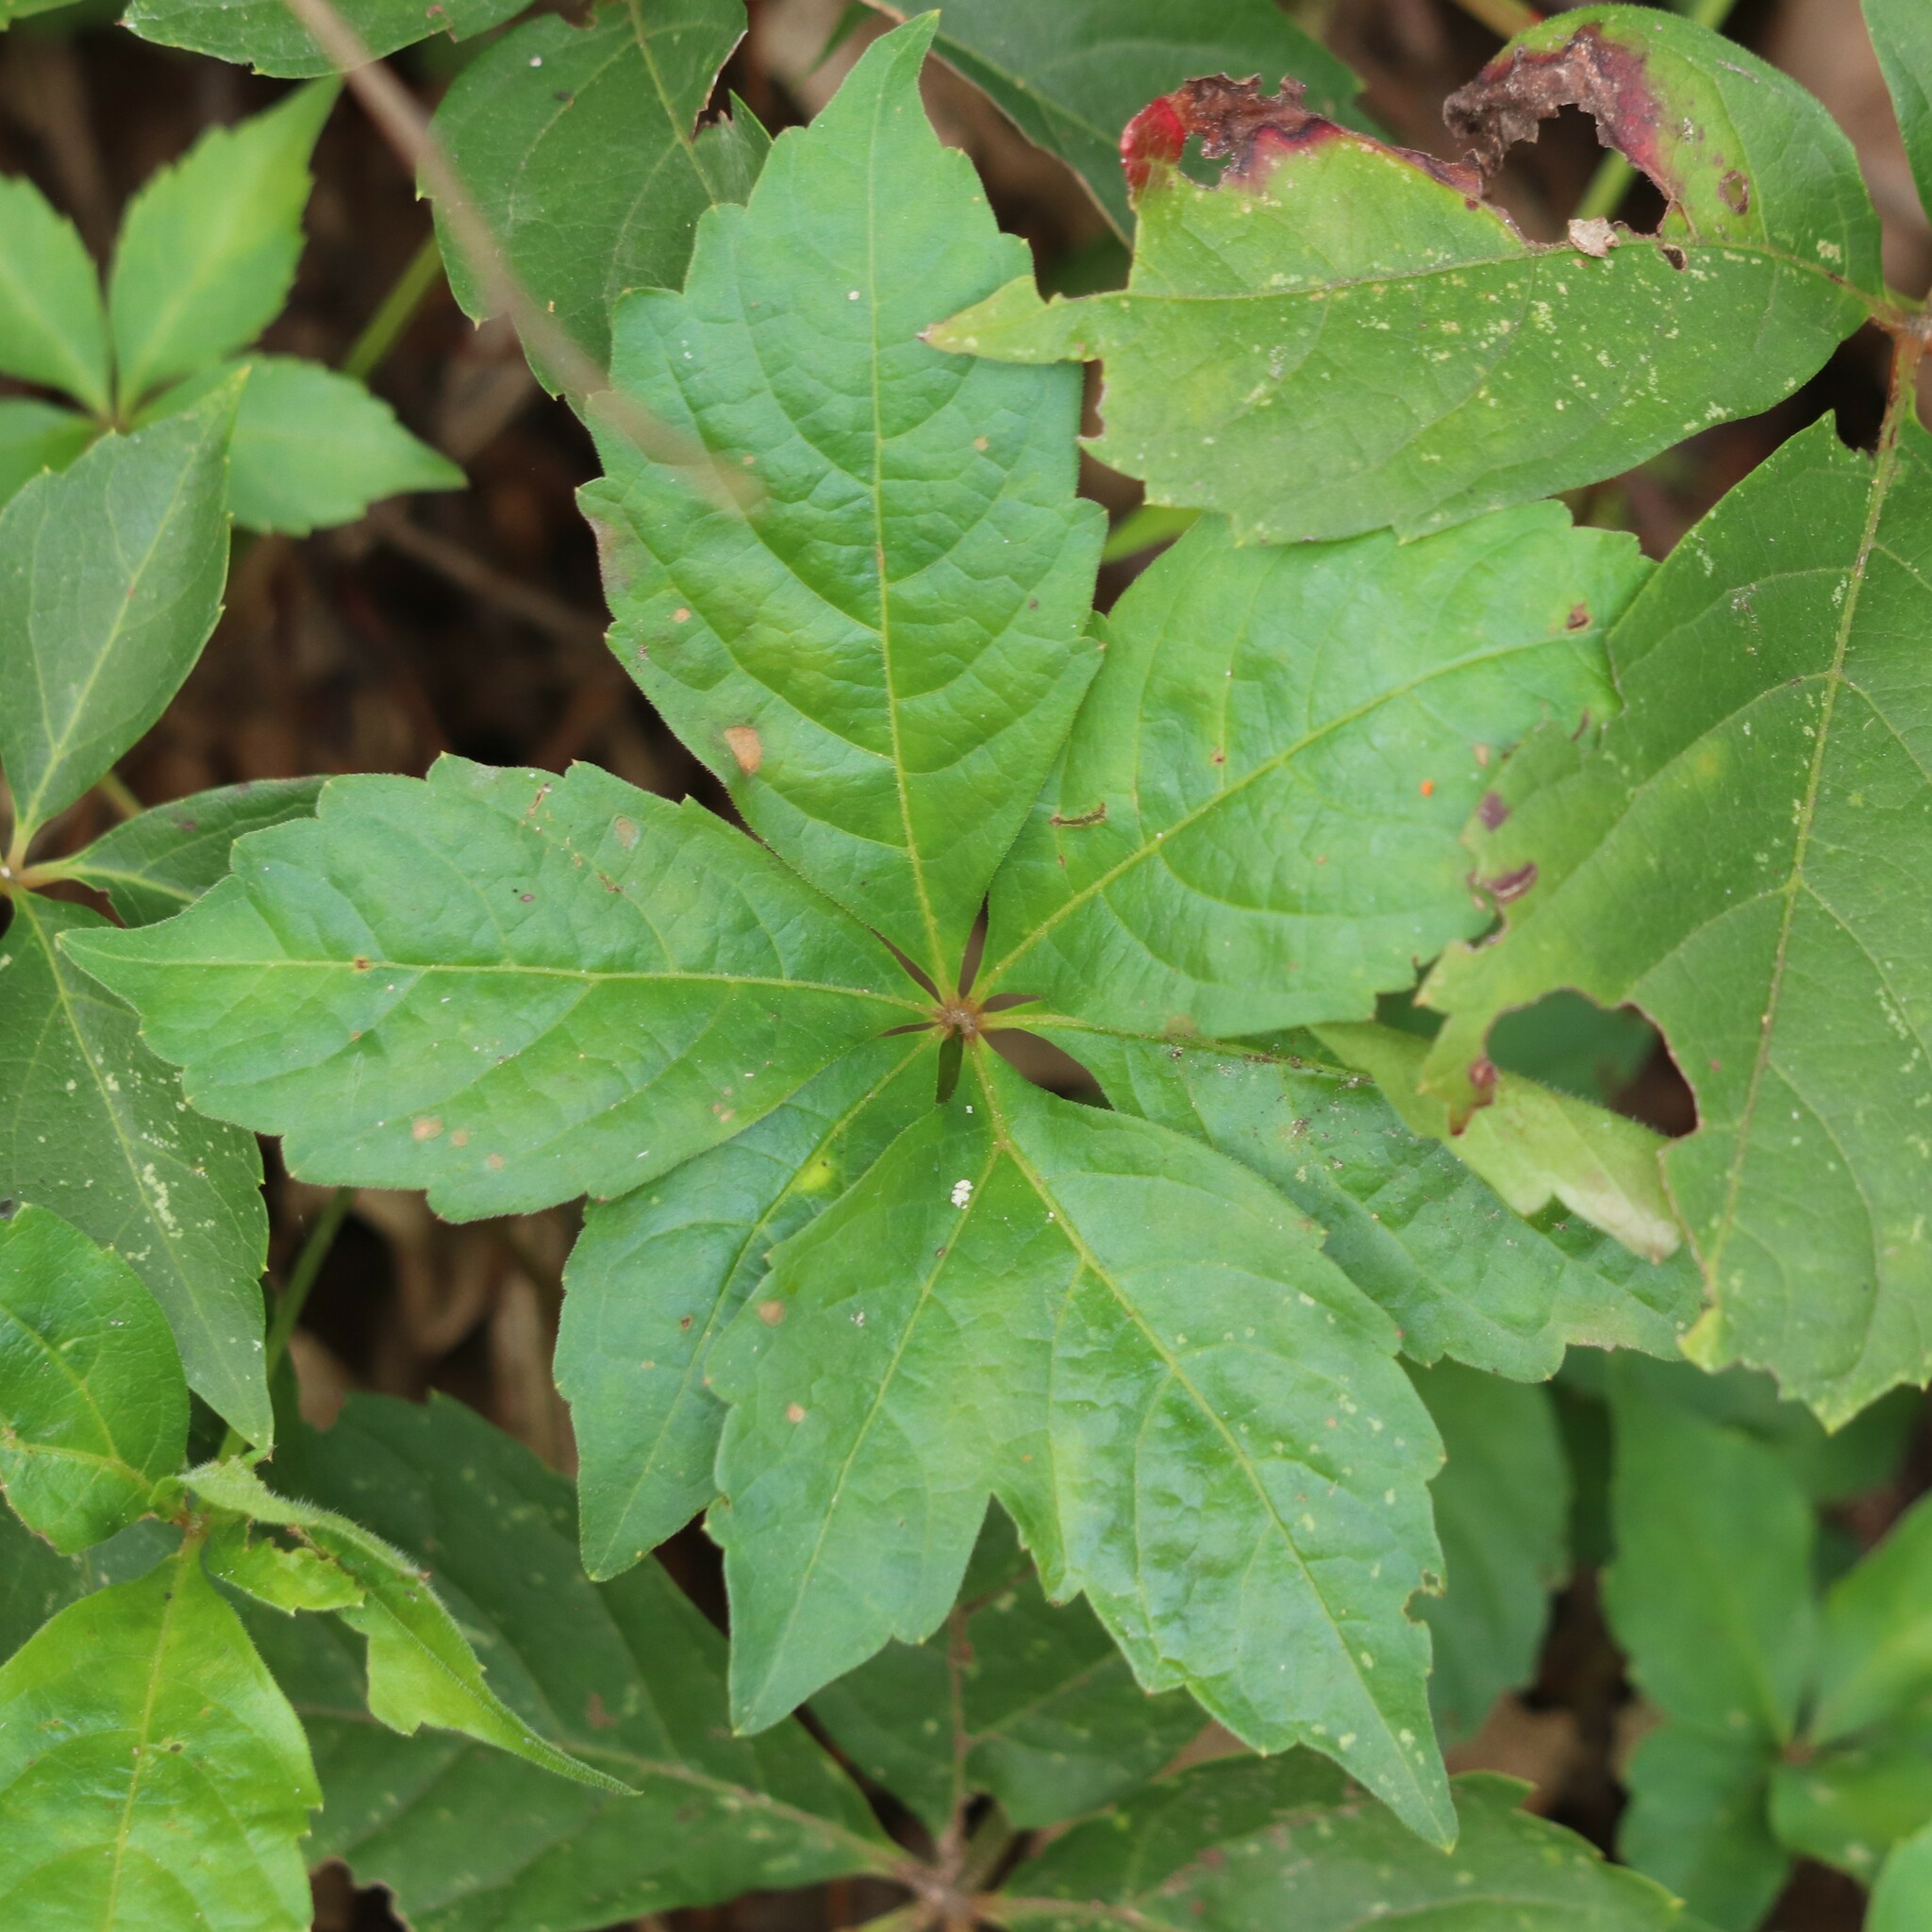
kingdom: Plantae
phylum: Tracheophyta
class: Magnoliopsida
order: Vitales
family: Vitaceae
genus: Parthenocissus
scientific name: Parthenocissus quinquefolia
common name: Virginia-creeper
